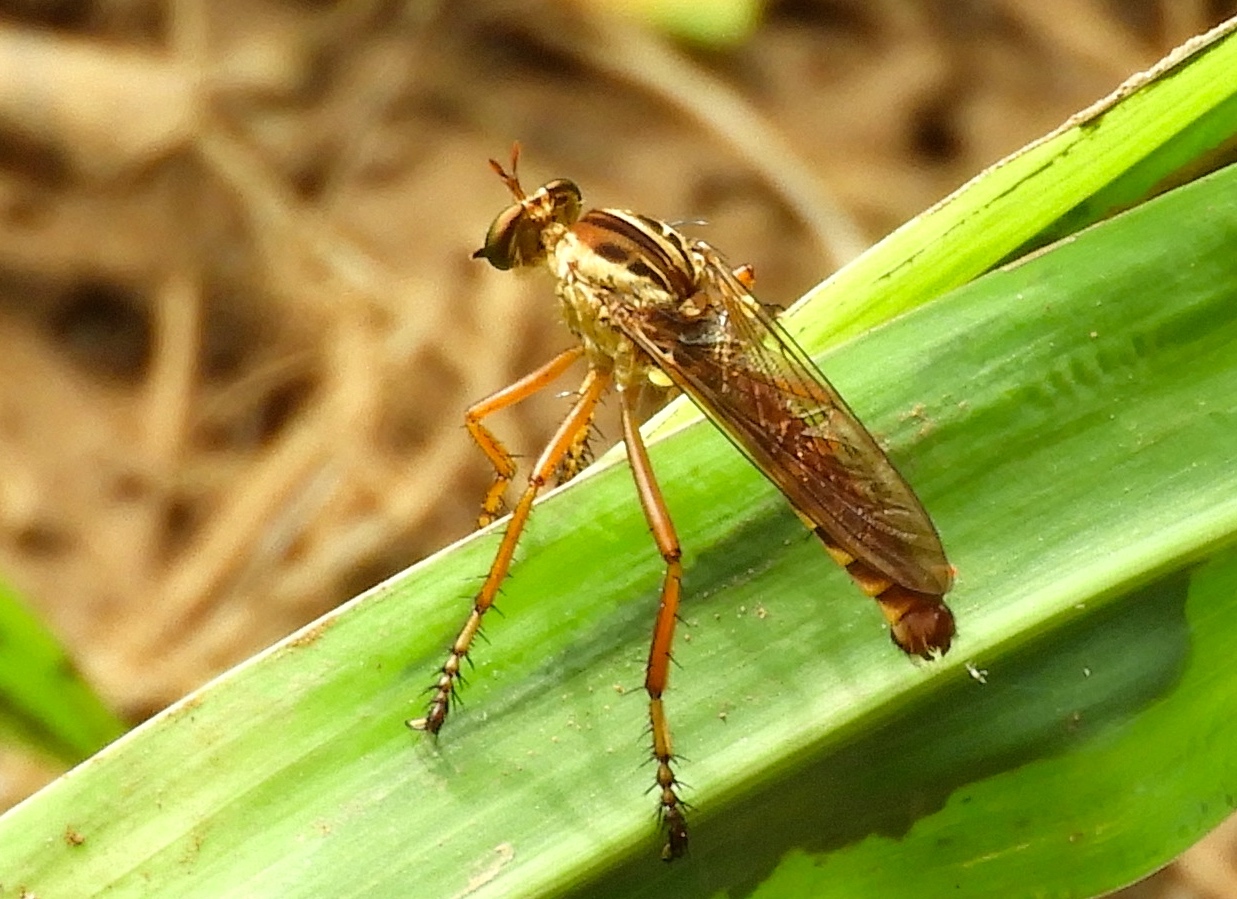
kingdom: Animalia
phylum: Arthropoda
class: Insecta
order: Diptera
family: Asilidae
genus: Diogmites
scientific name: Diogmites
